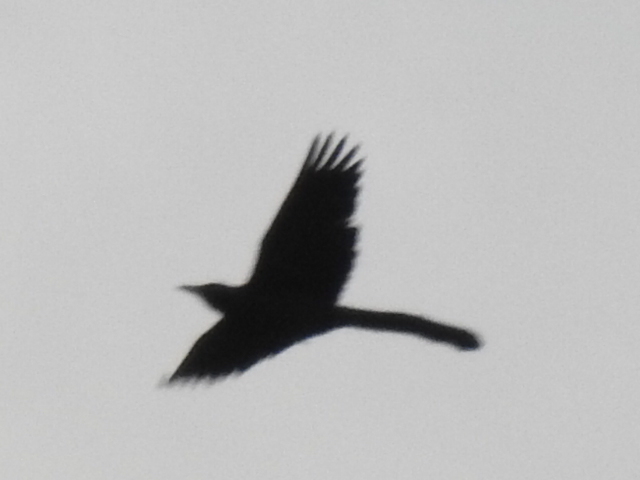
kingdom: Animalia
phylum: Chordata
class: Aves
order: Passeriformes
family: Icteridae
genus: Quiscalus
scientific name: Quiscalus mexicanus
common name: Great-tailed grackle
